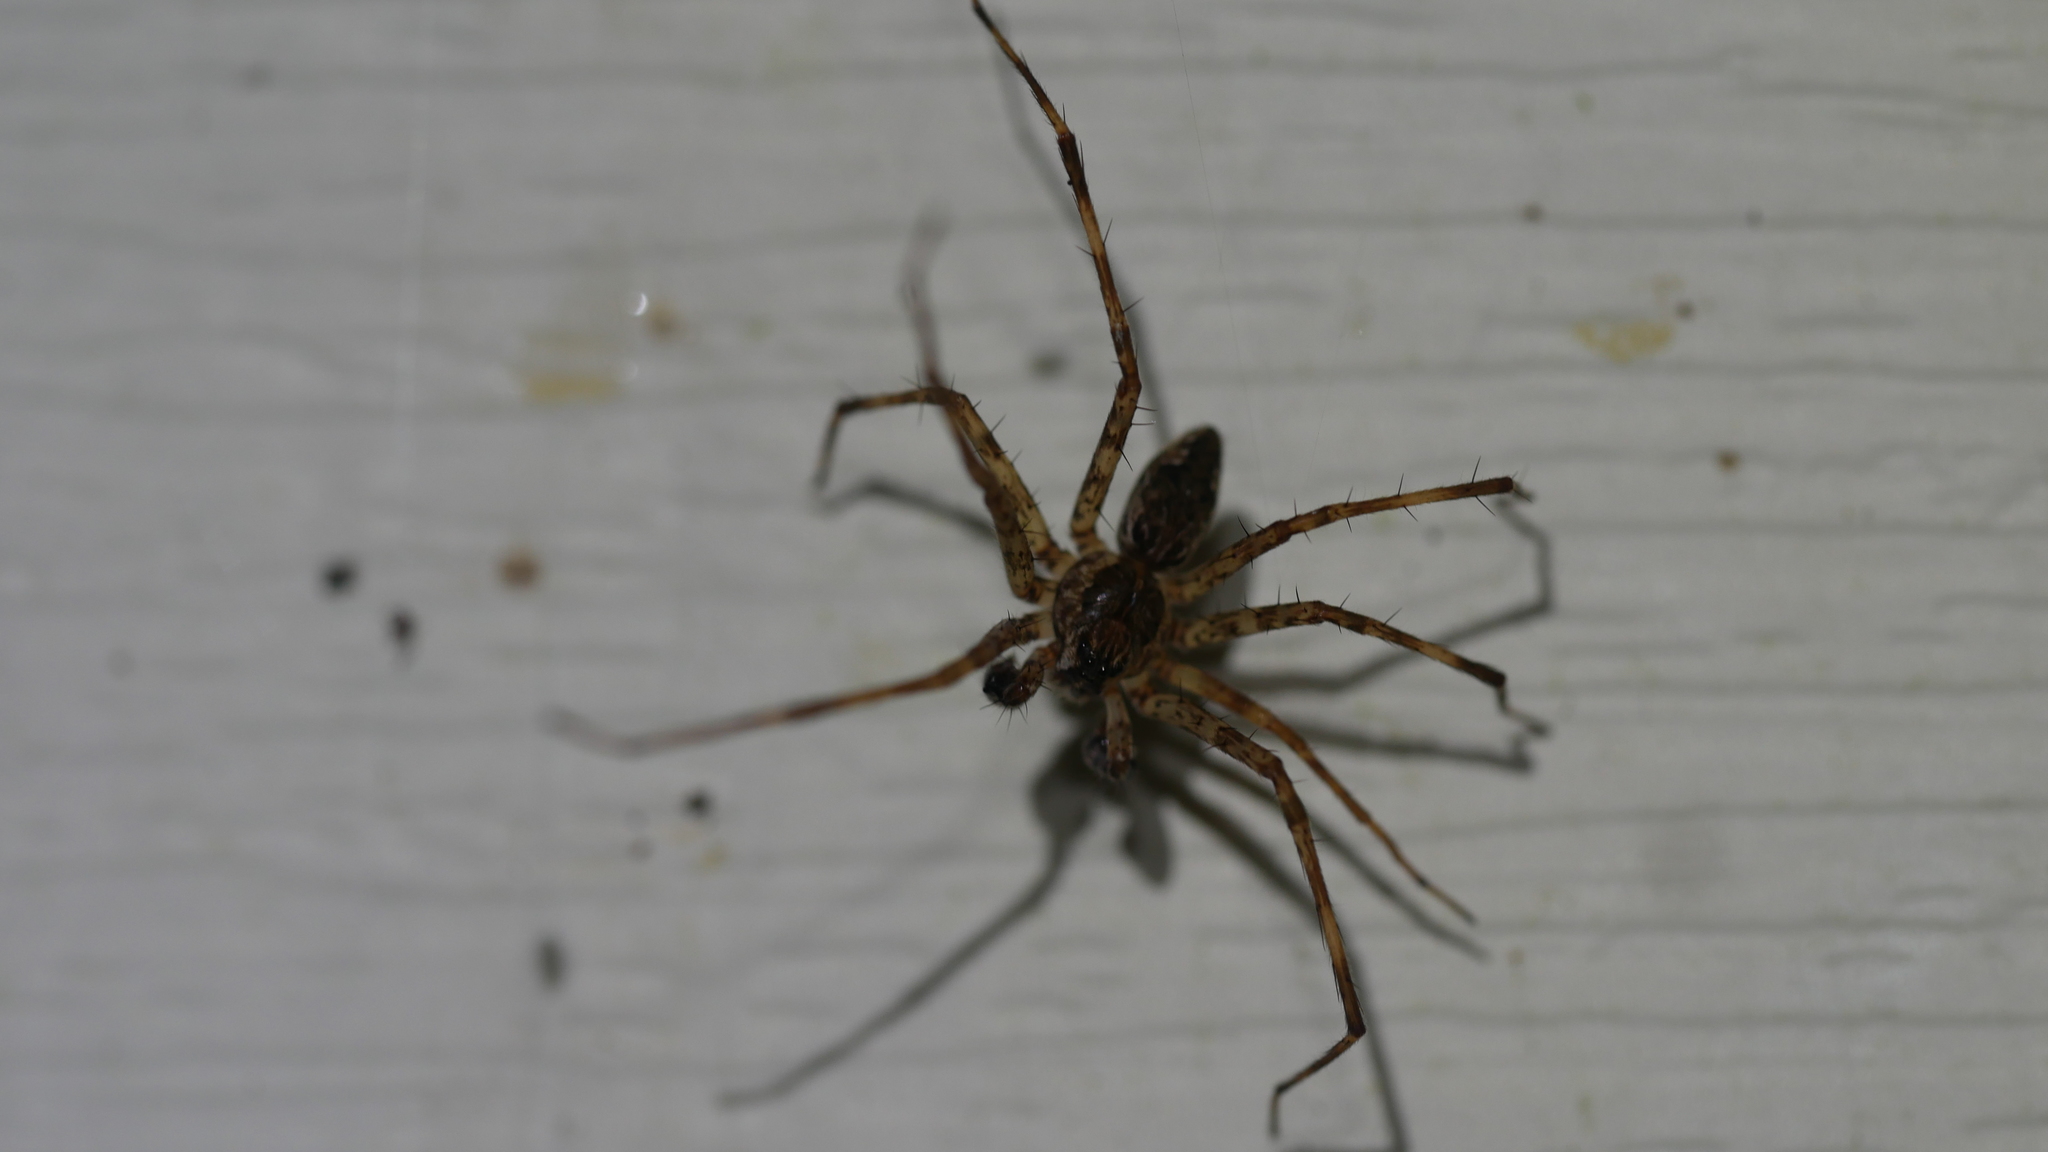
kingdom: Animalia
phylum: Arthropoda
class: Arachnida
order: Araneae
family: Pisauridae
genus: Dolomedes
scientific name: Dolomedes tenebrosus
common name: Dark fishing spider
